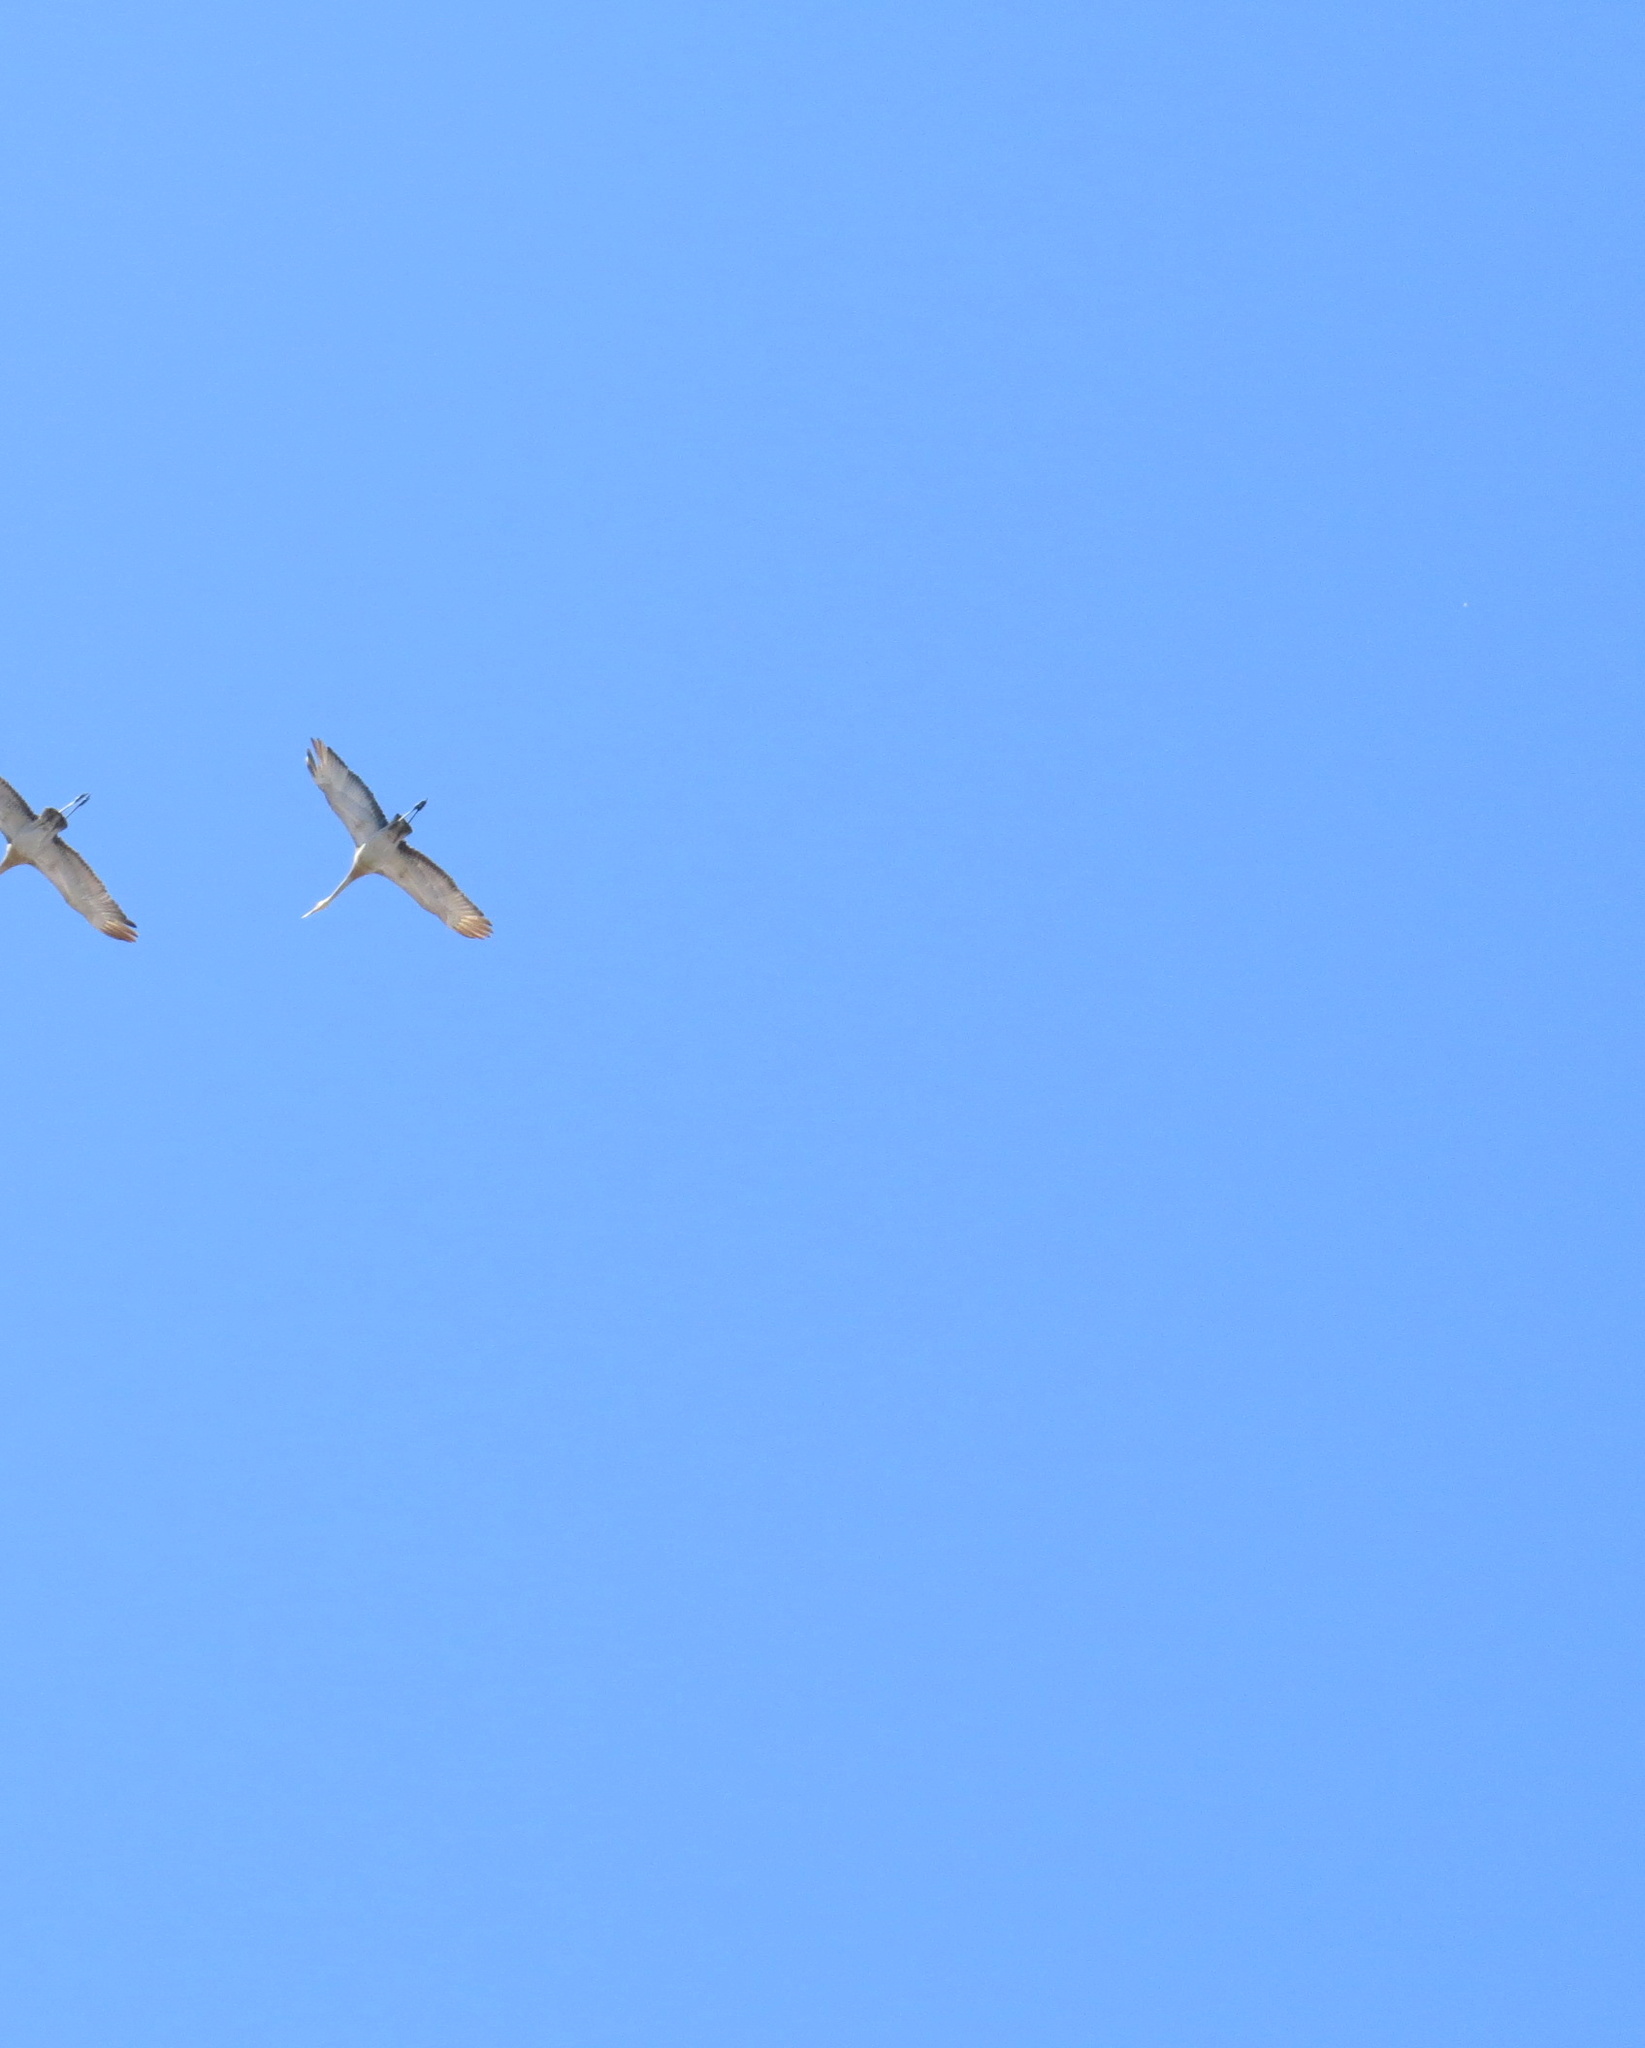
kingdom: Animalia
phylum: Chordata
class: Aves
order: Gruiformes
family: Gruidae
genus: Grus
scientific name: Grus canadensis
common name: Sandhill crane
